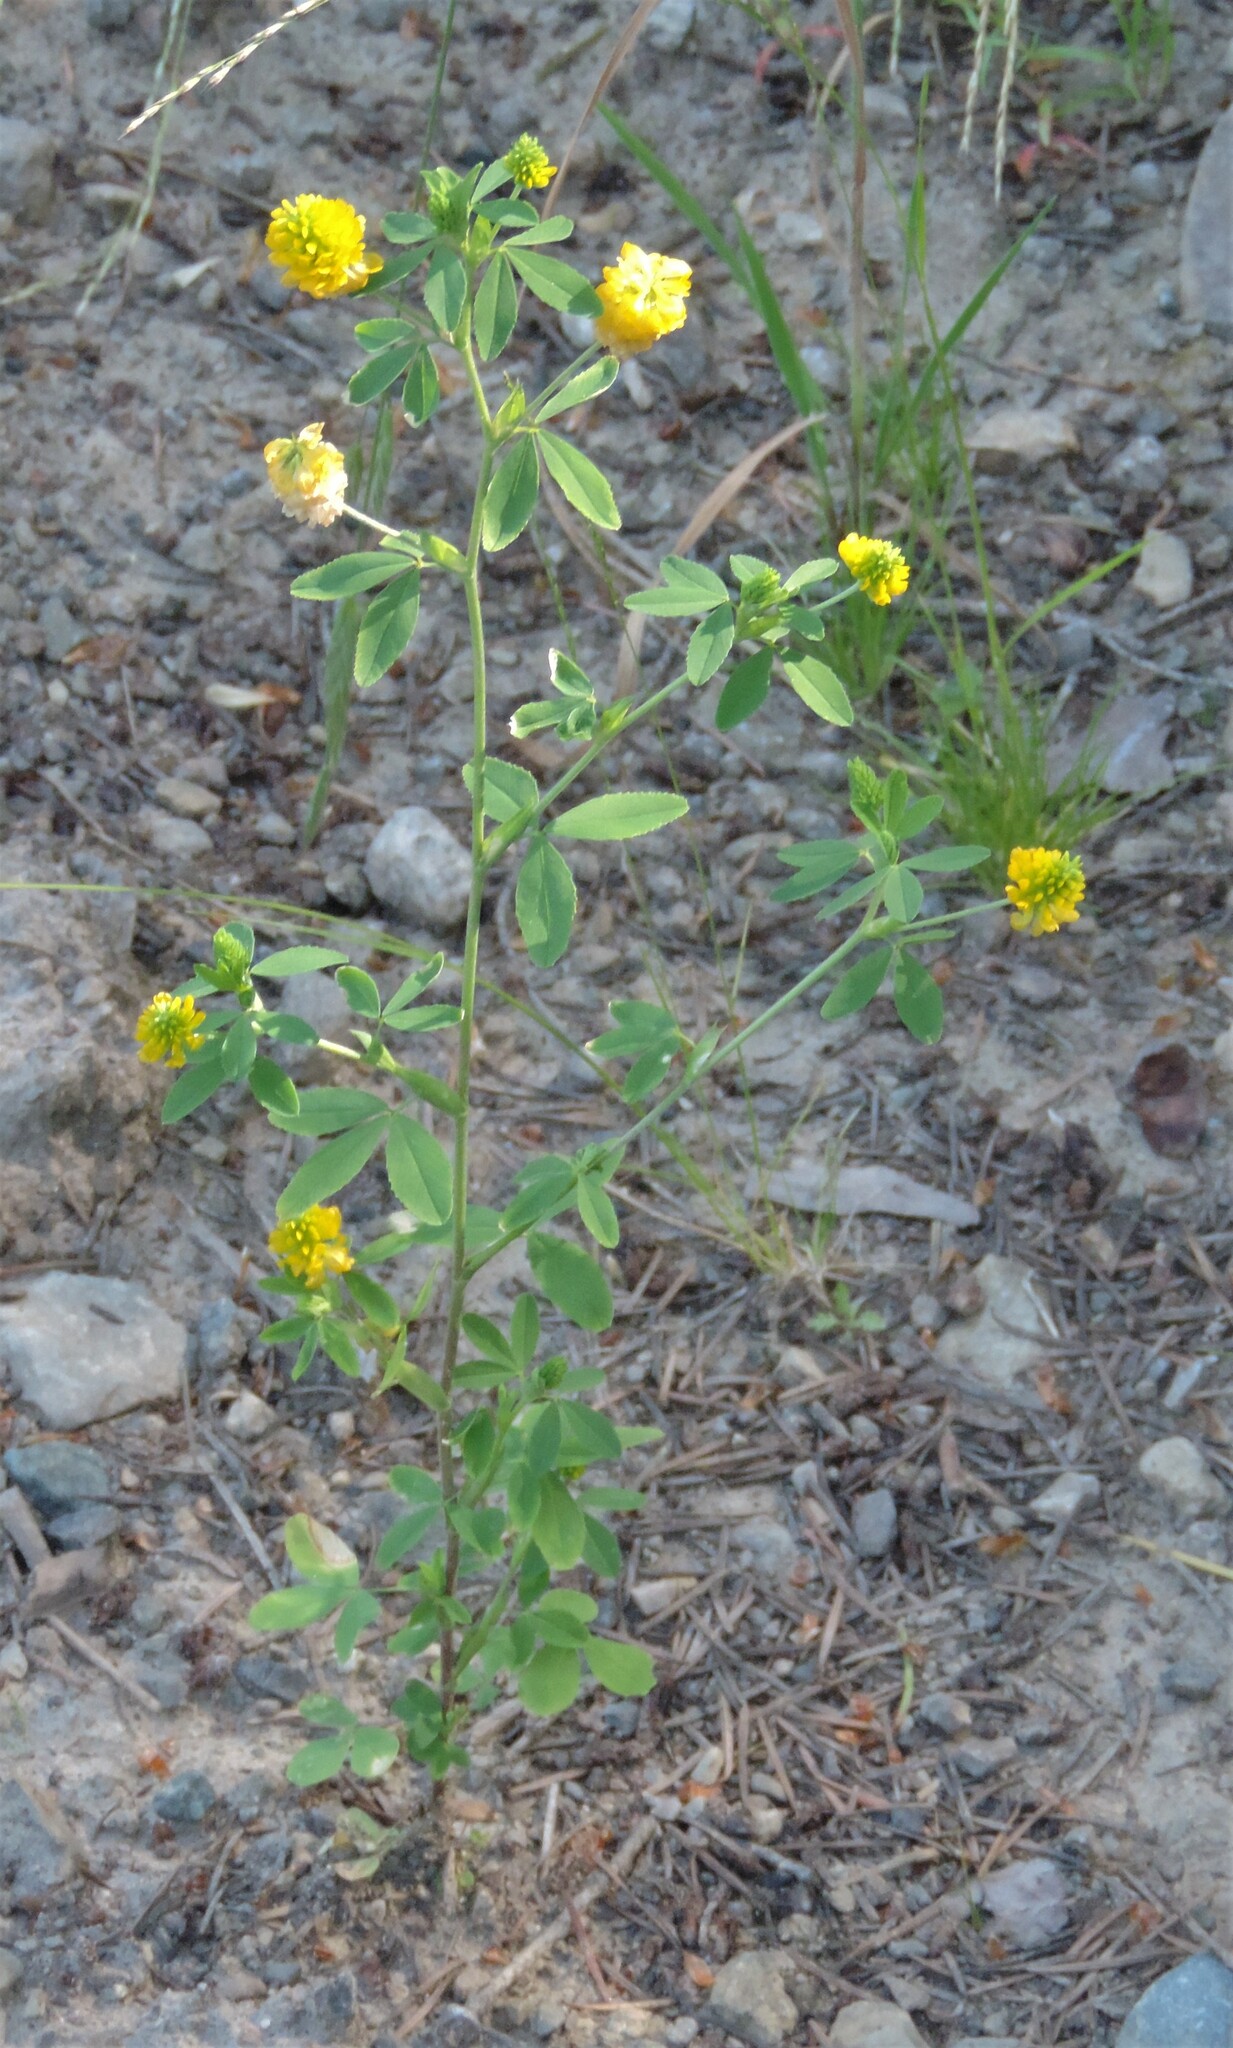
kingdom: Plantae
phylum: Tracheophyta
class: Magnoliopsida
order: Fabales
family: Fabaceae
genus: Trifolium
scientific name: Trifolium aureum
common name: Golden clover
